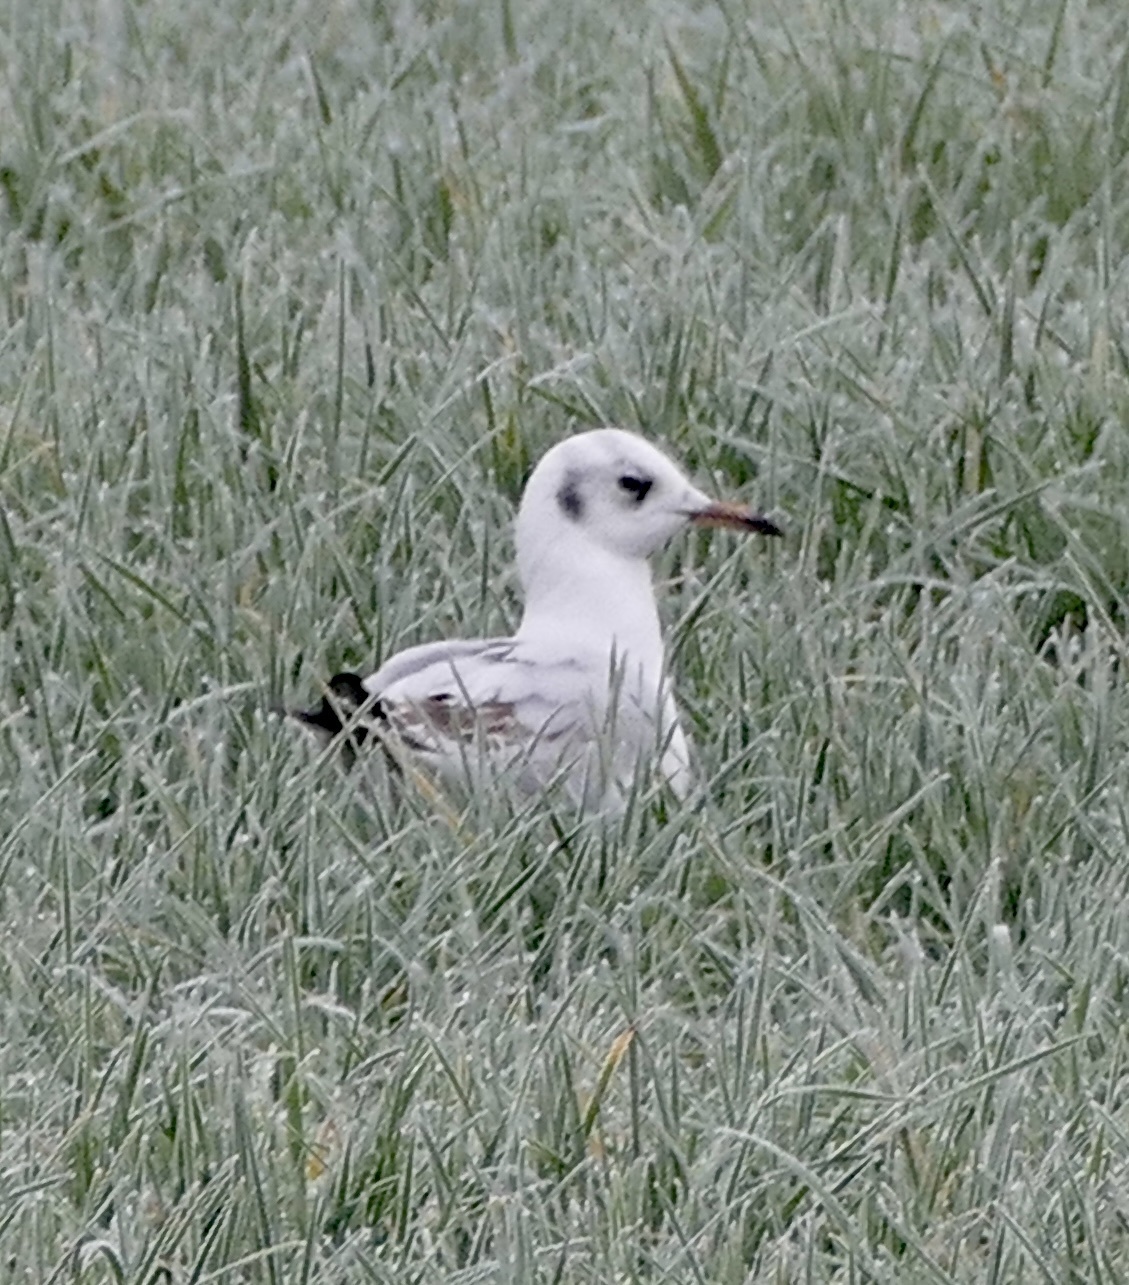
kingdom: Animalia
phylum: Chordata
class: Aves
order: Charadriiformes
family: Laridae
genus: Chroicocephalus
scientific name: Chroicocephalus ridibundus
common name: Black-headed gull
